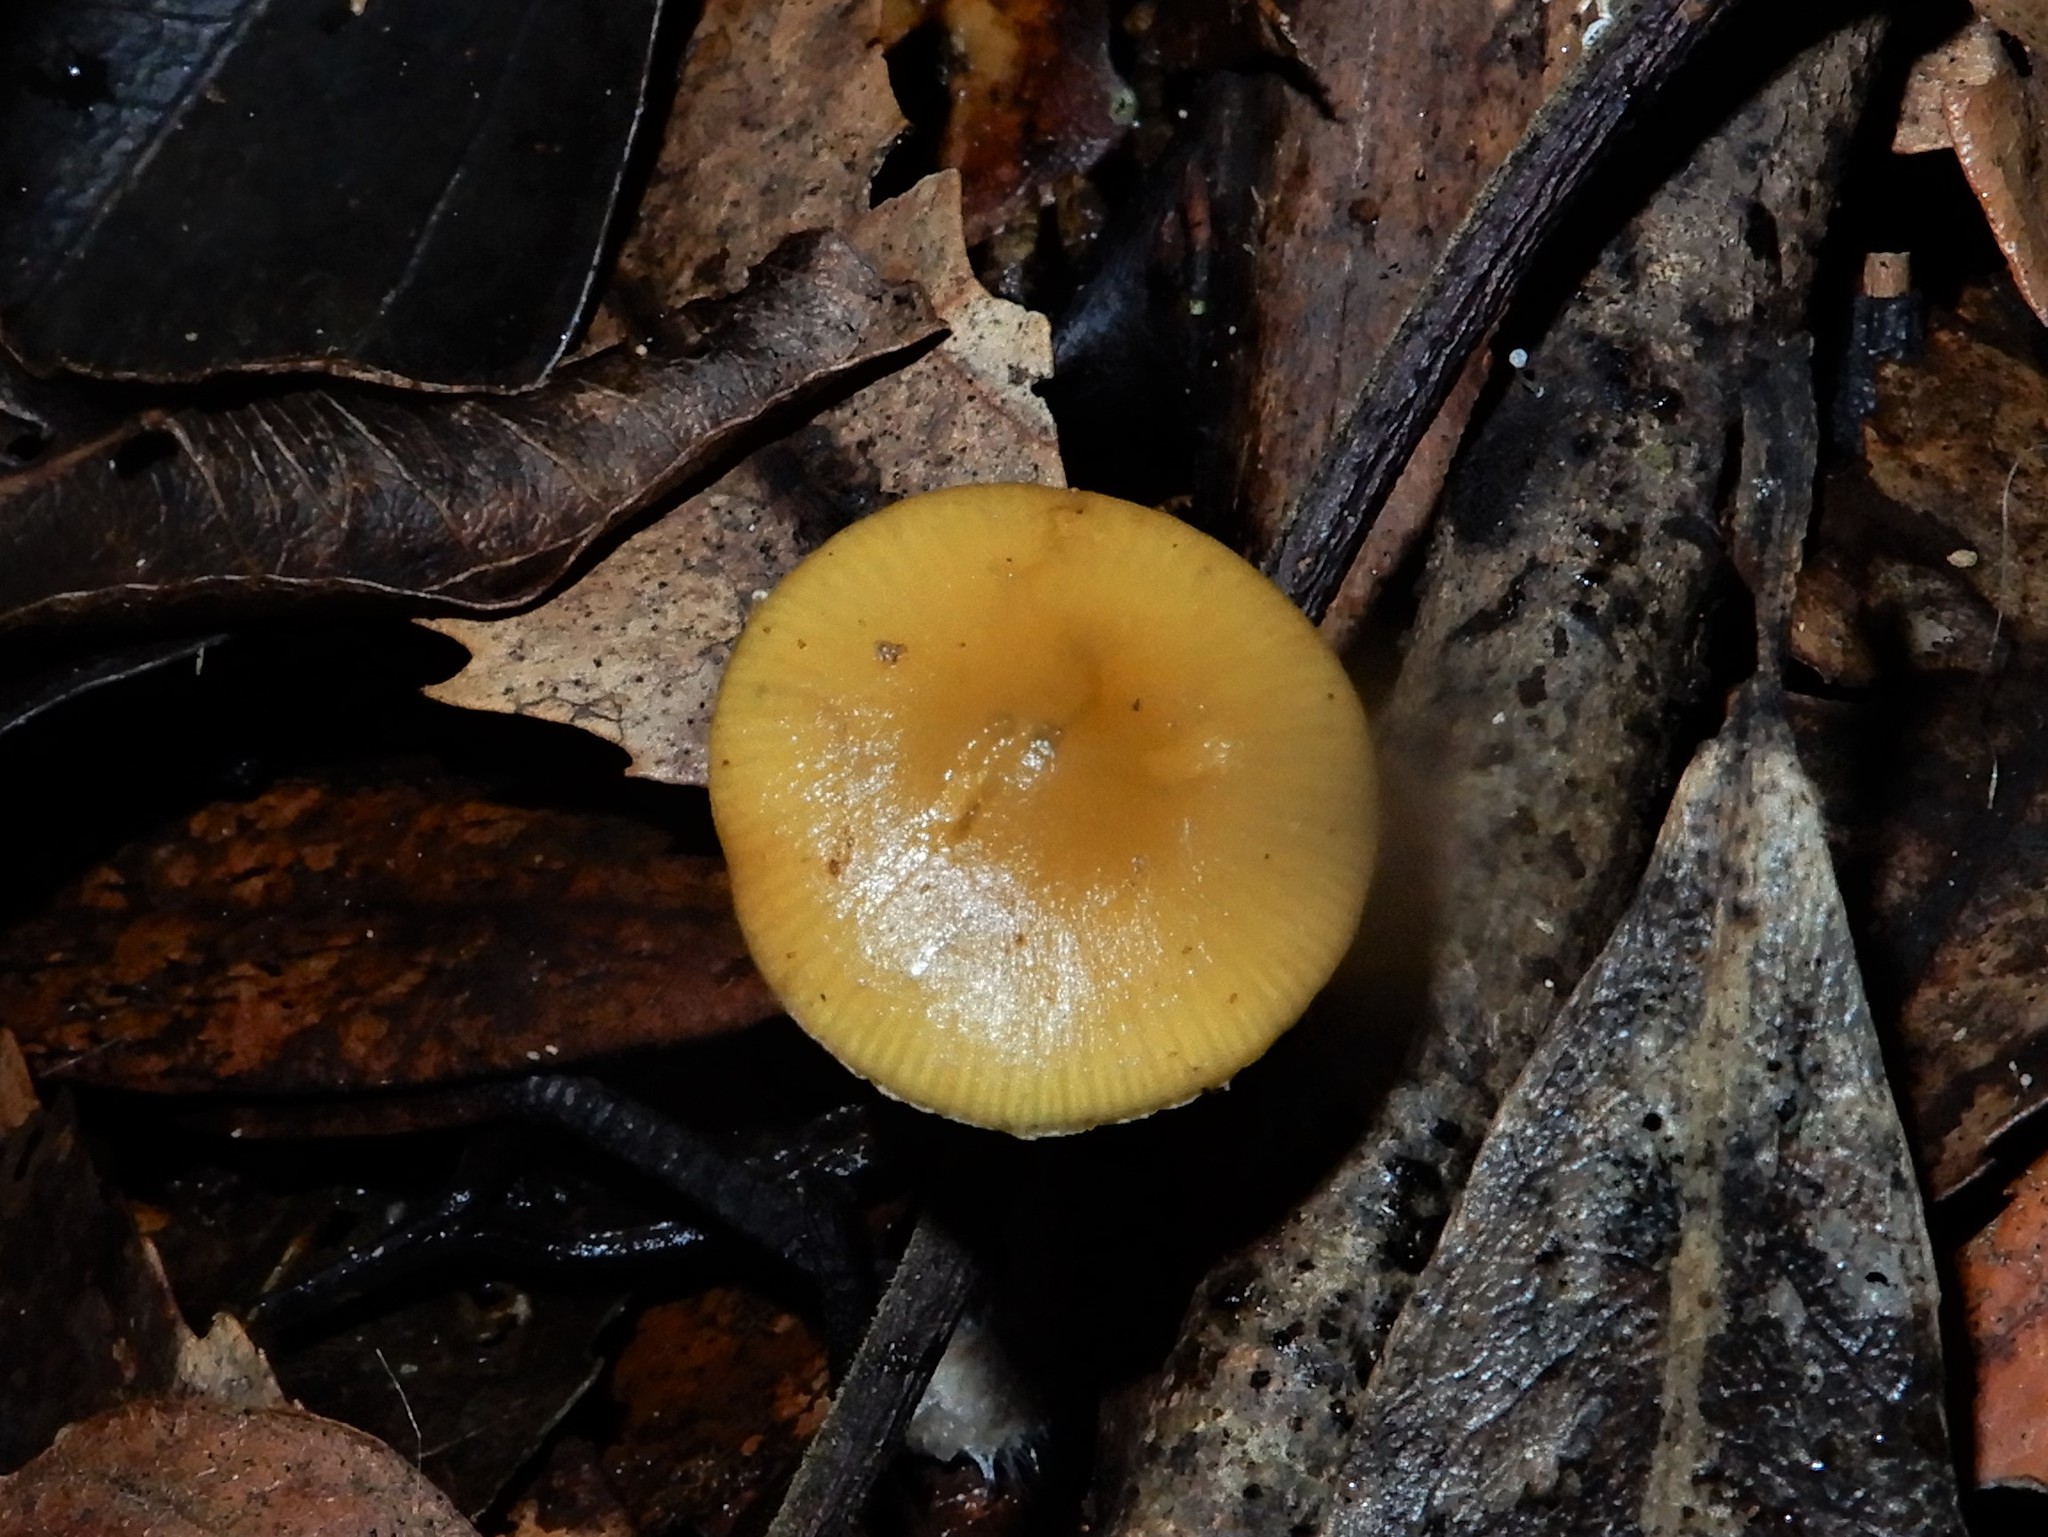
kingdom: Fungi
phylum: Basidiomycota
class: Agaricomycetes
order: Agaricales
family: Hymenogastraceae
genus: Psilocybe
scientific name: Psilocybe makarorae
